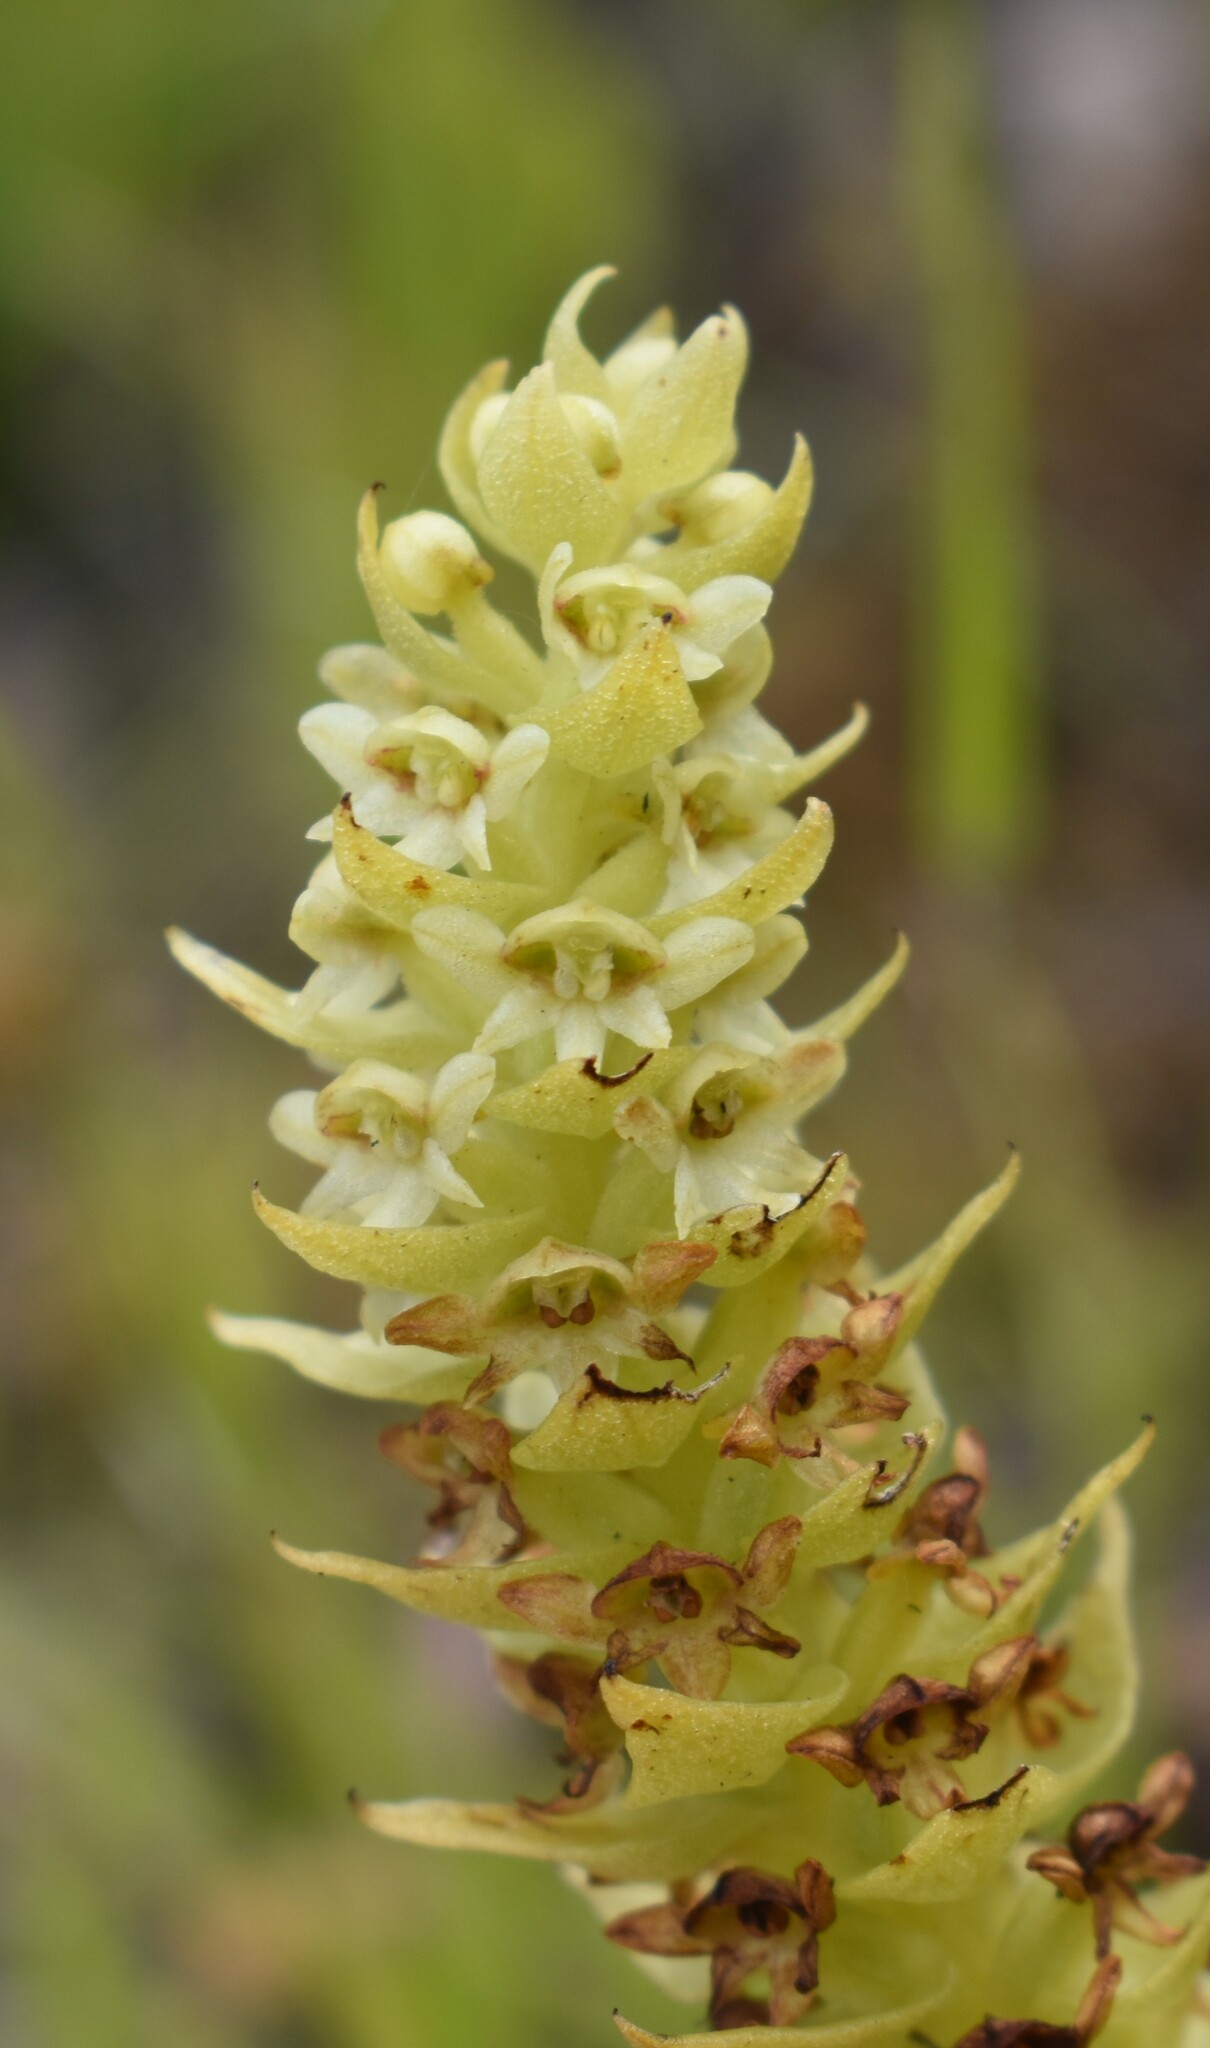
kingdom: Plantae
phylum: Tracheophyta
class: Liliopsida
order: Asparagales
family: Orchidaceae
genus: Satyrium
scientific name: Satyrium retusum
